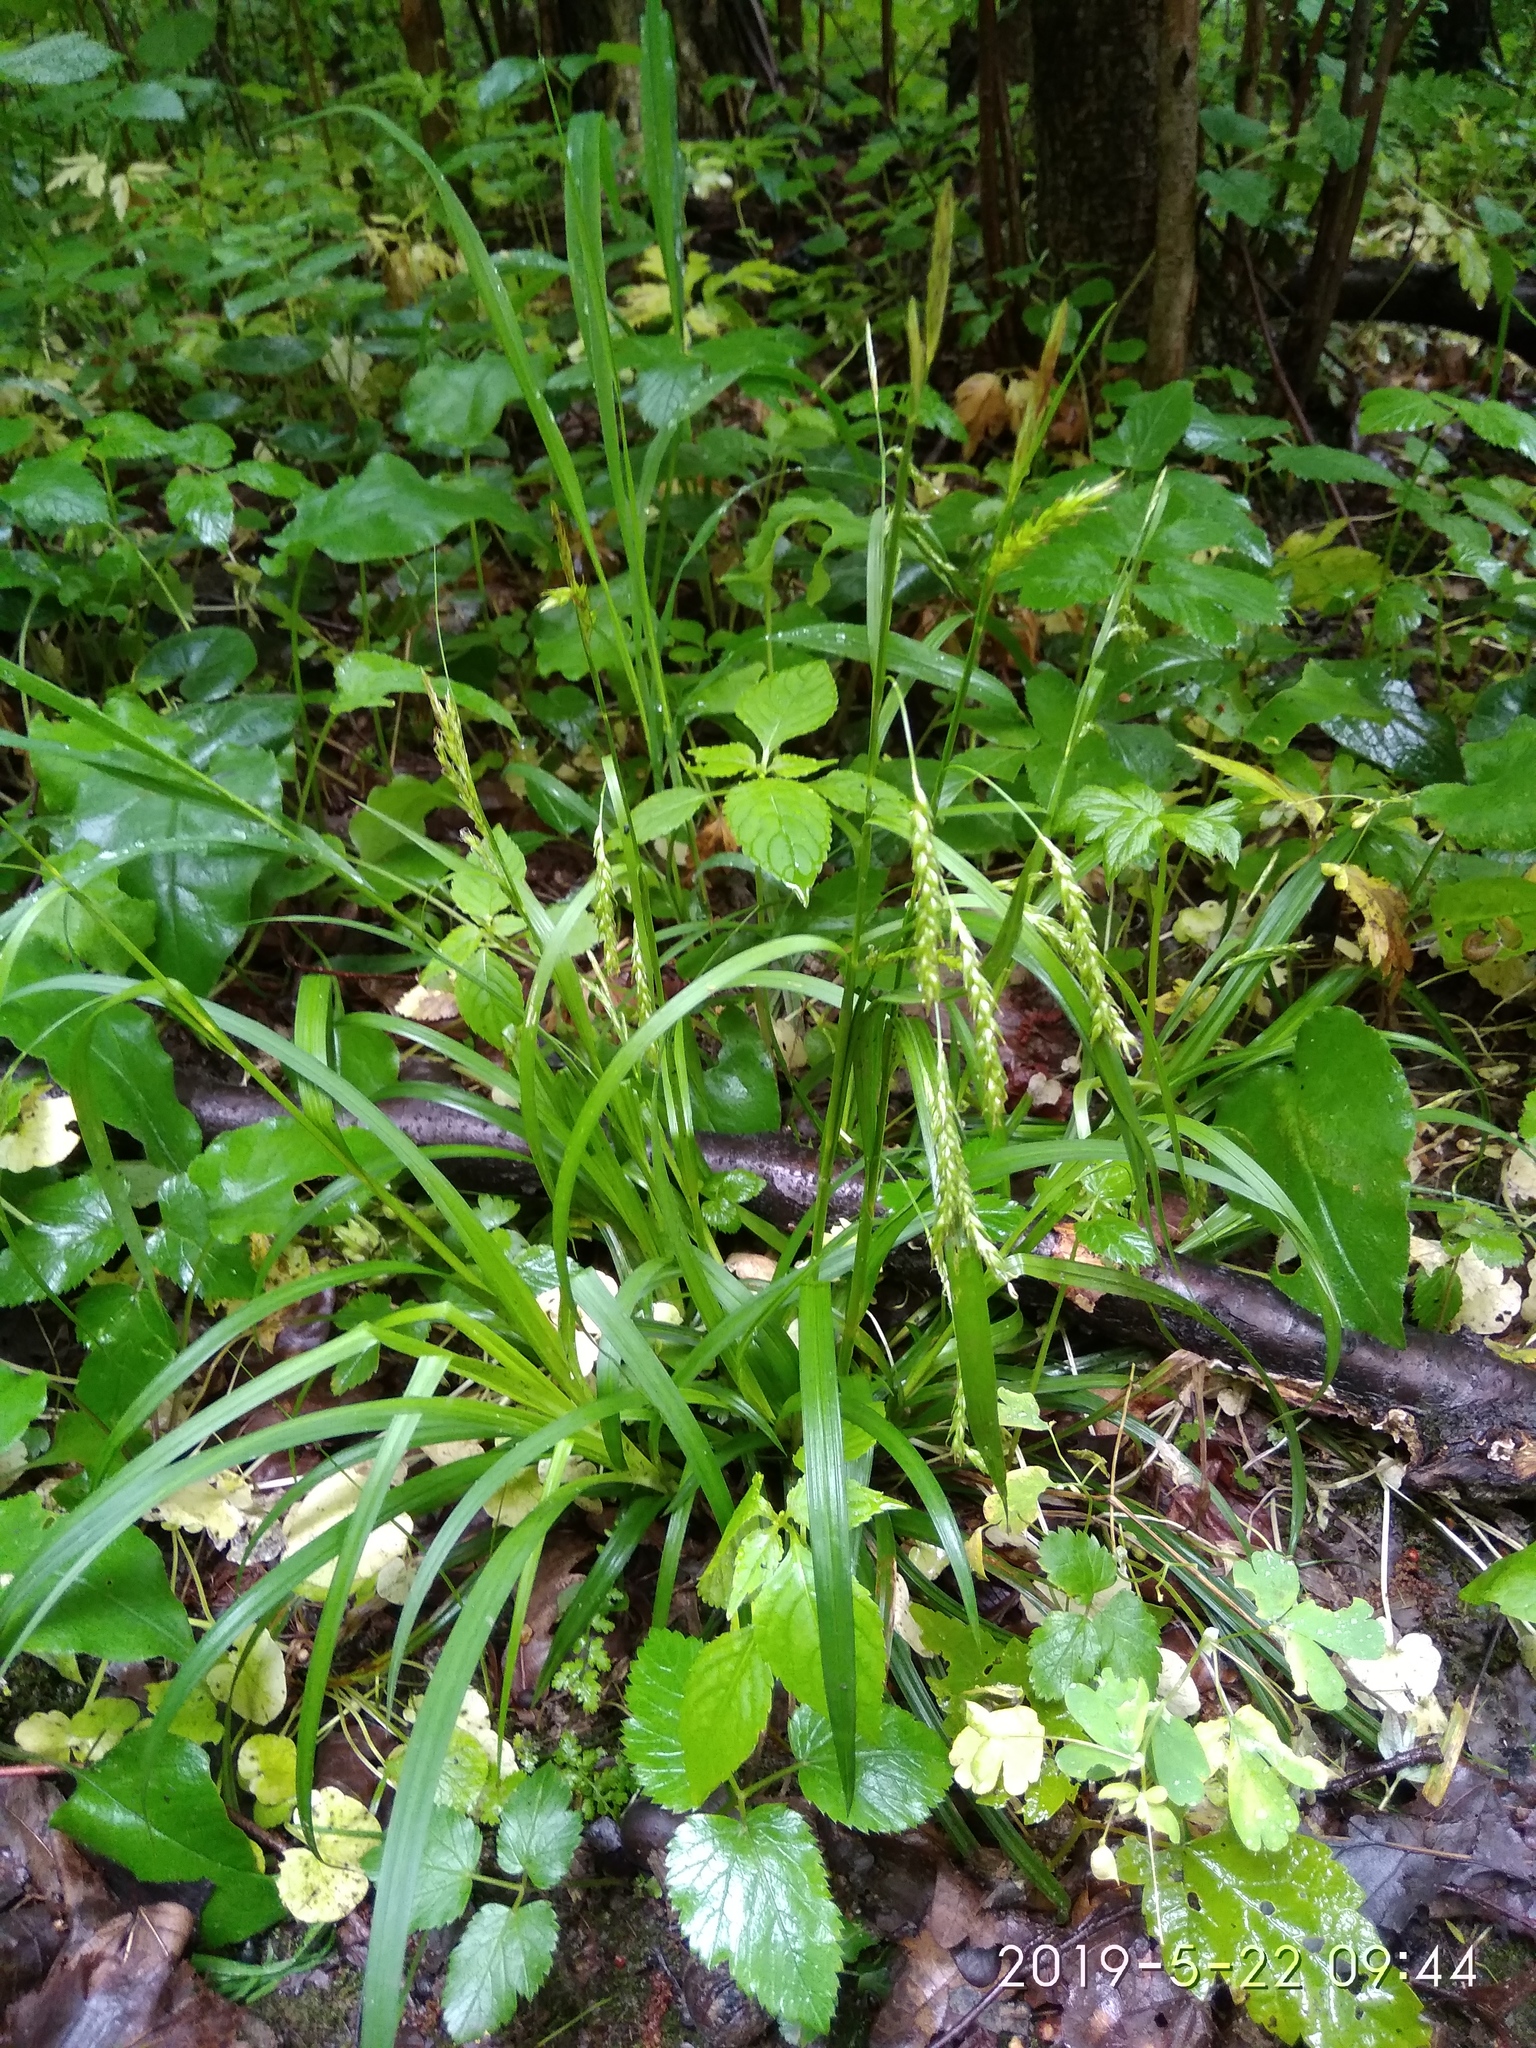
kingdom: Plantae
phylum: Tracheophyta
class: Liliopsida
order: Poales
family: Cyperaceae
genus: Carex
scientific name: Carex sylvatica
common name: Wood-sedge
